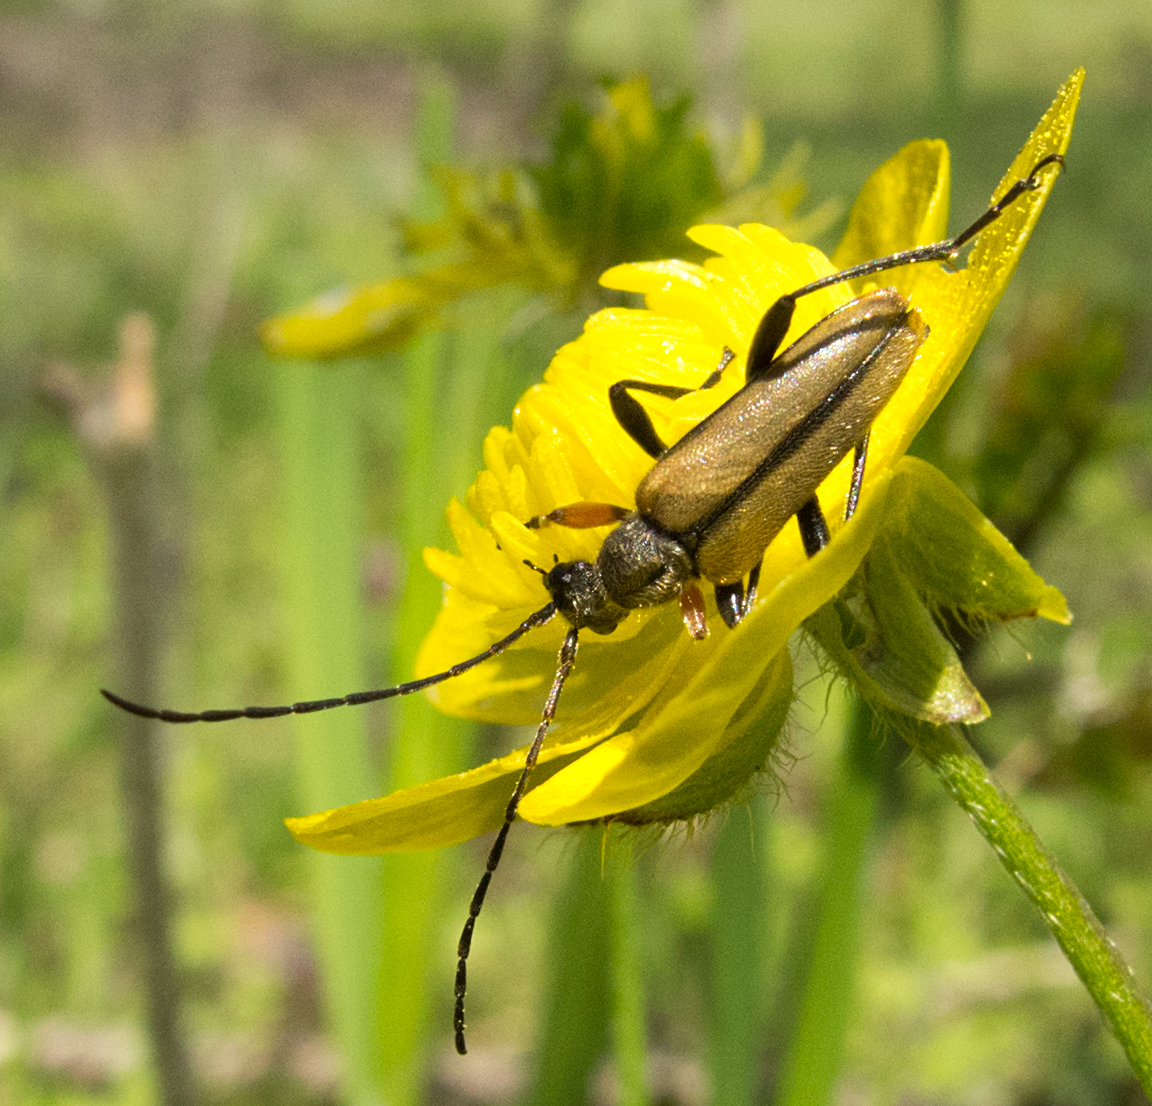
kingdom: Animalia
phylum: Arthropoda
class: Insecta
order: Coleoptera
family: Cerambycidae
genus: Cortodera
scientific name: Cortodera flavimana
